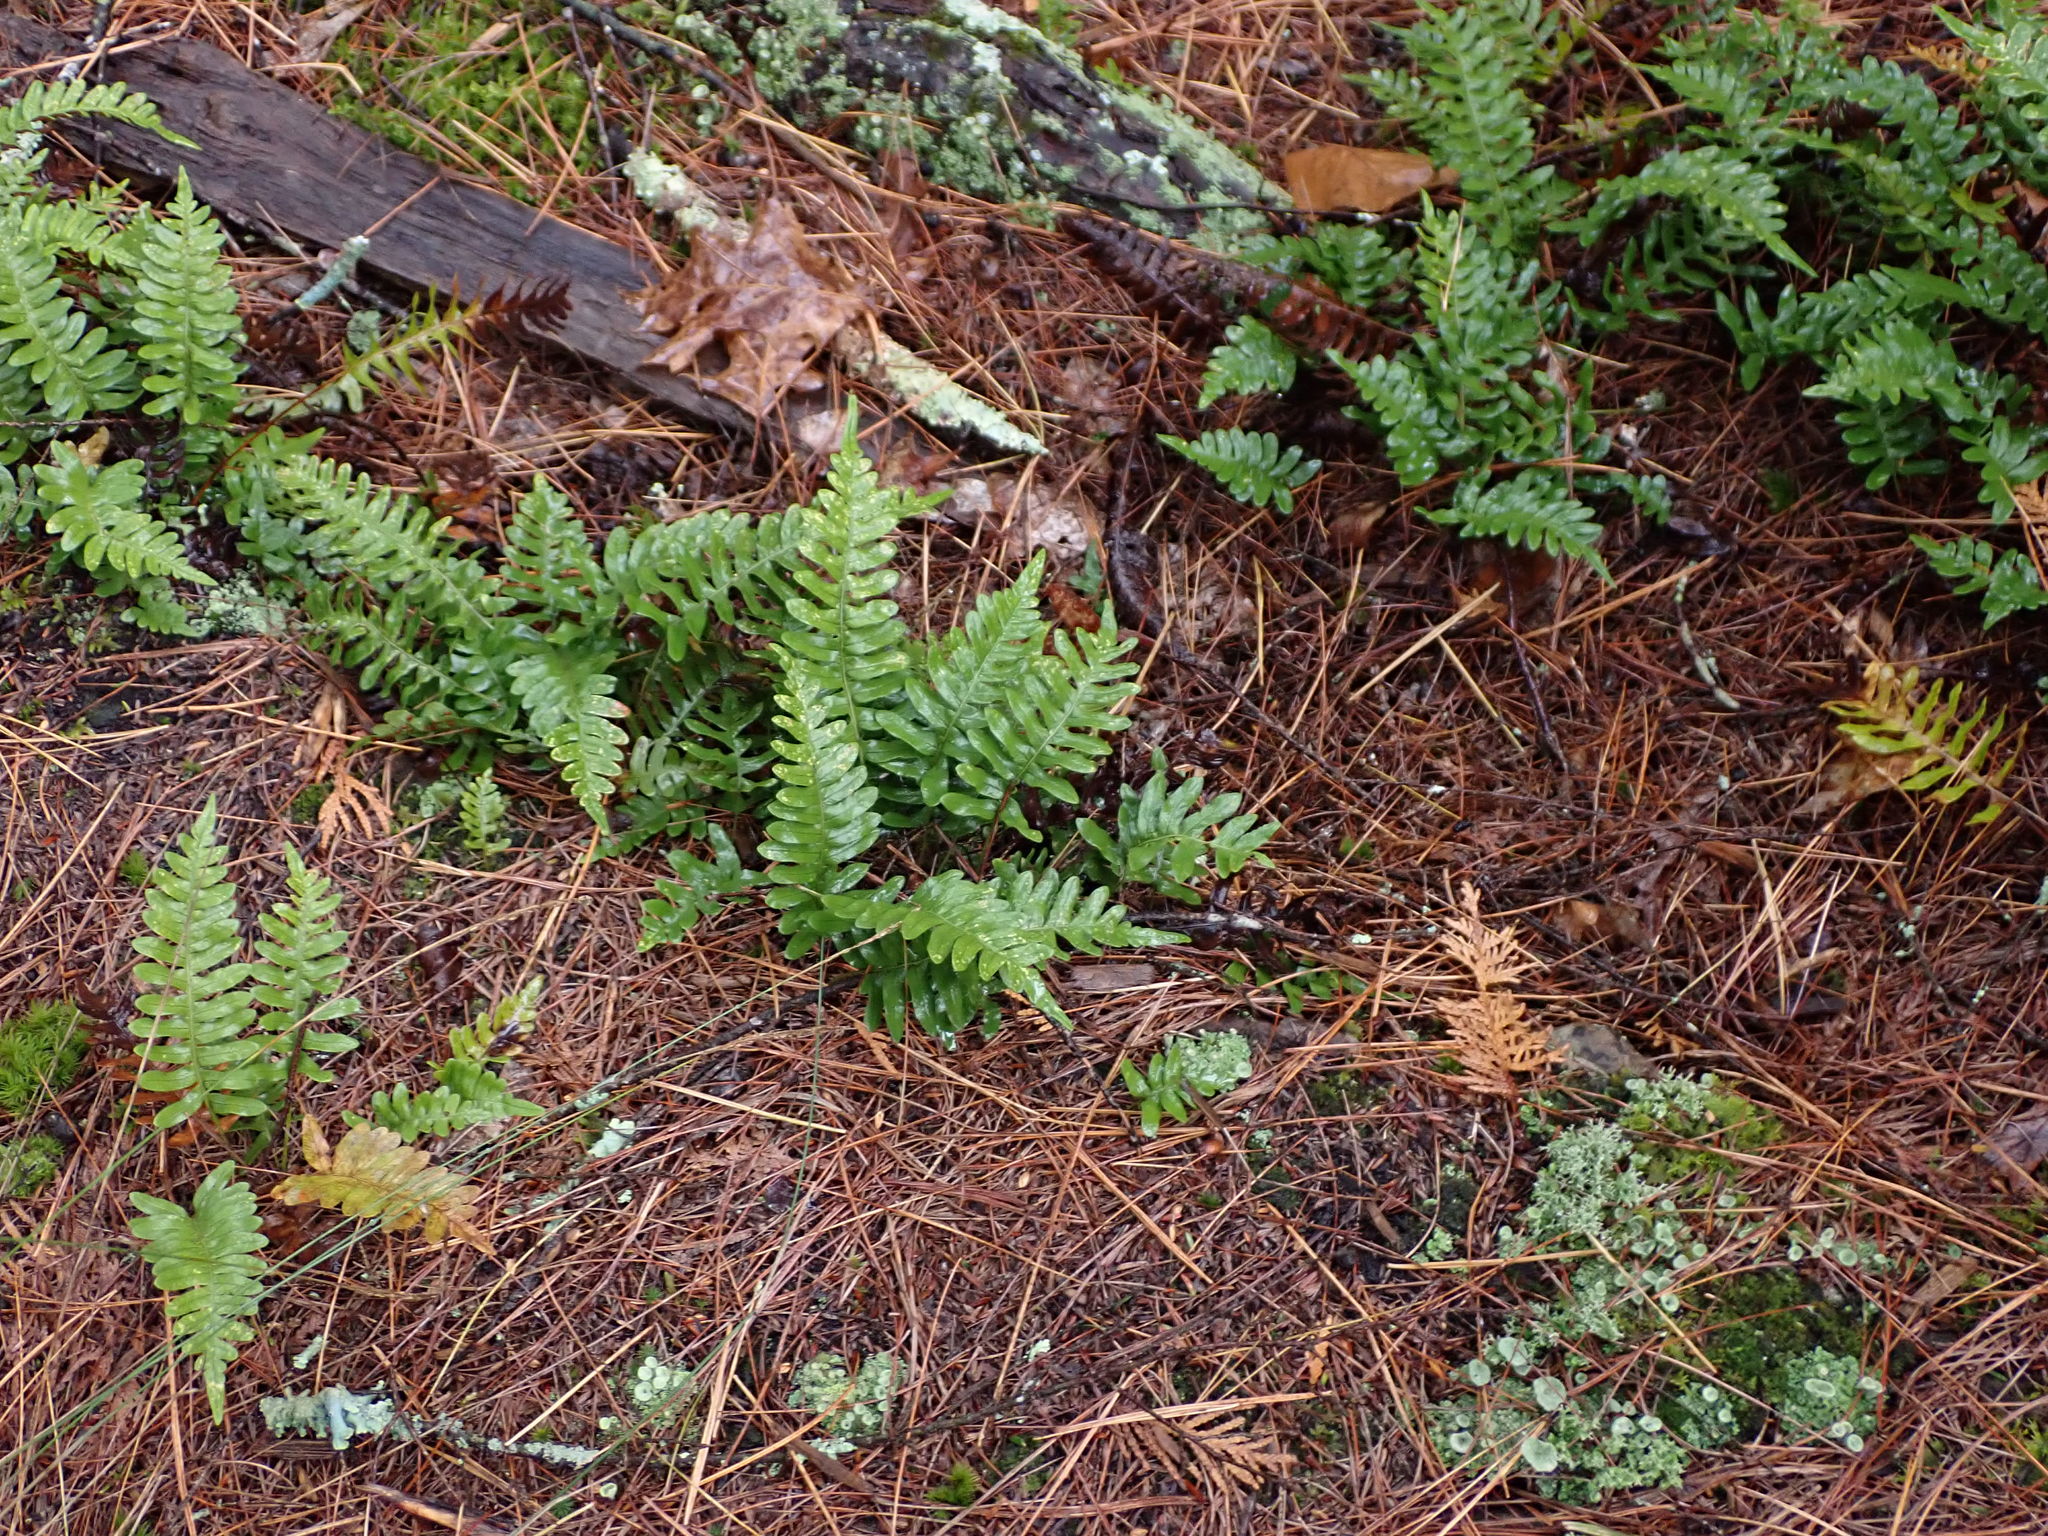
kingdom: Plantae
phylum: Tracheophyta
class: Polypodiopsida
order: Polypodiales
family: Polypodiaceae
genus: Polypodium
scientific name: Polypodium virginianum
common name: American wall fern
